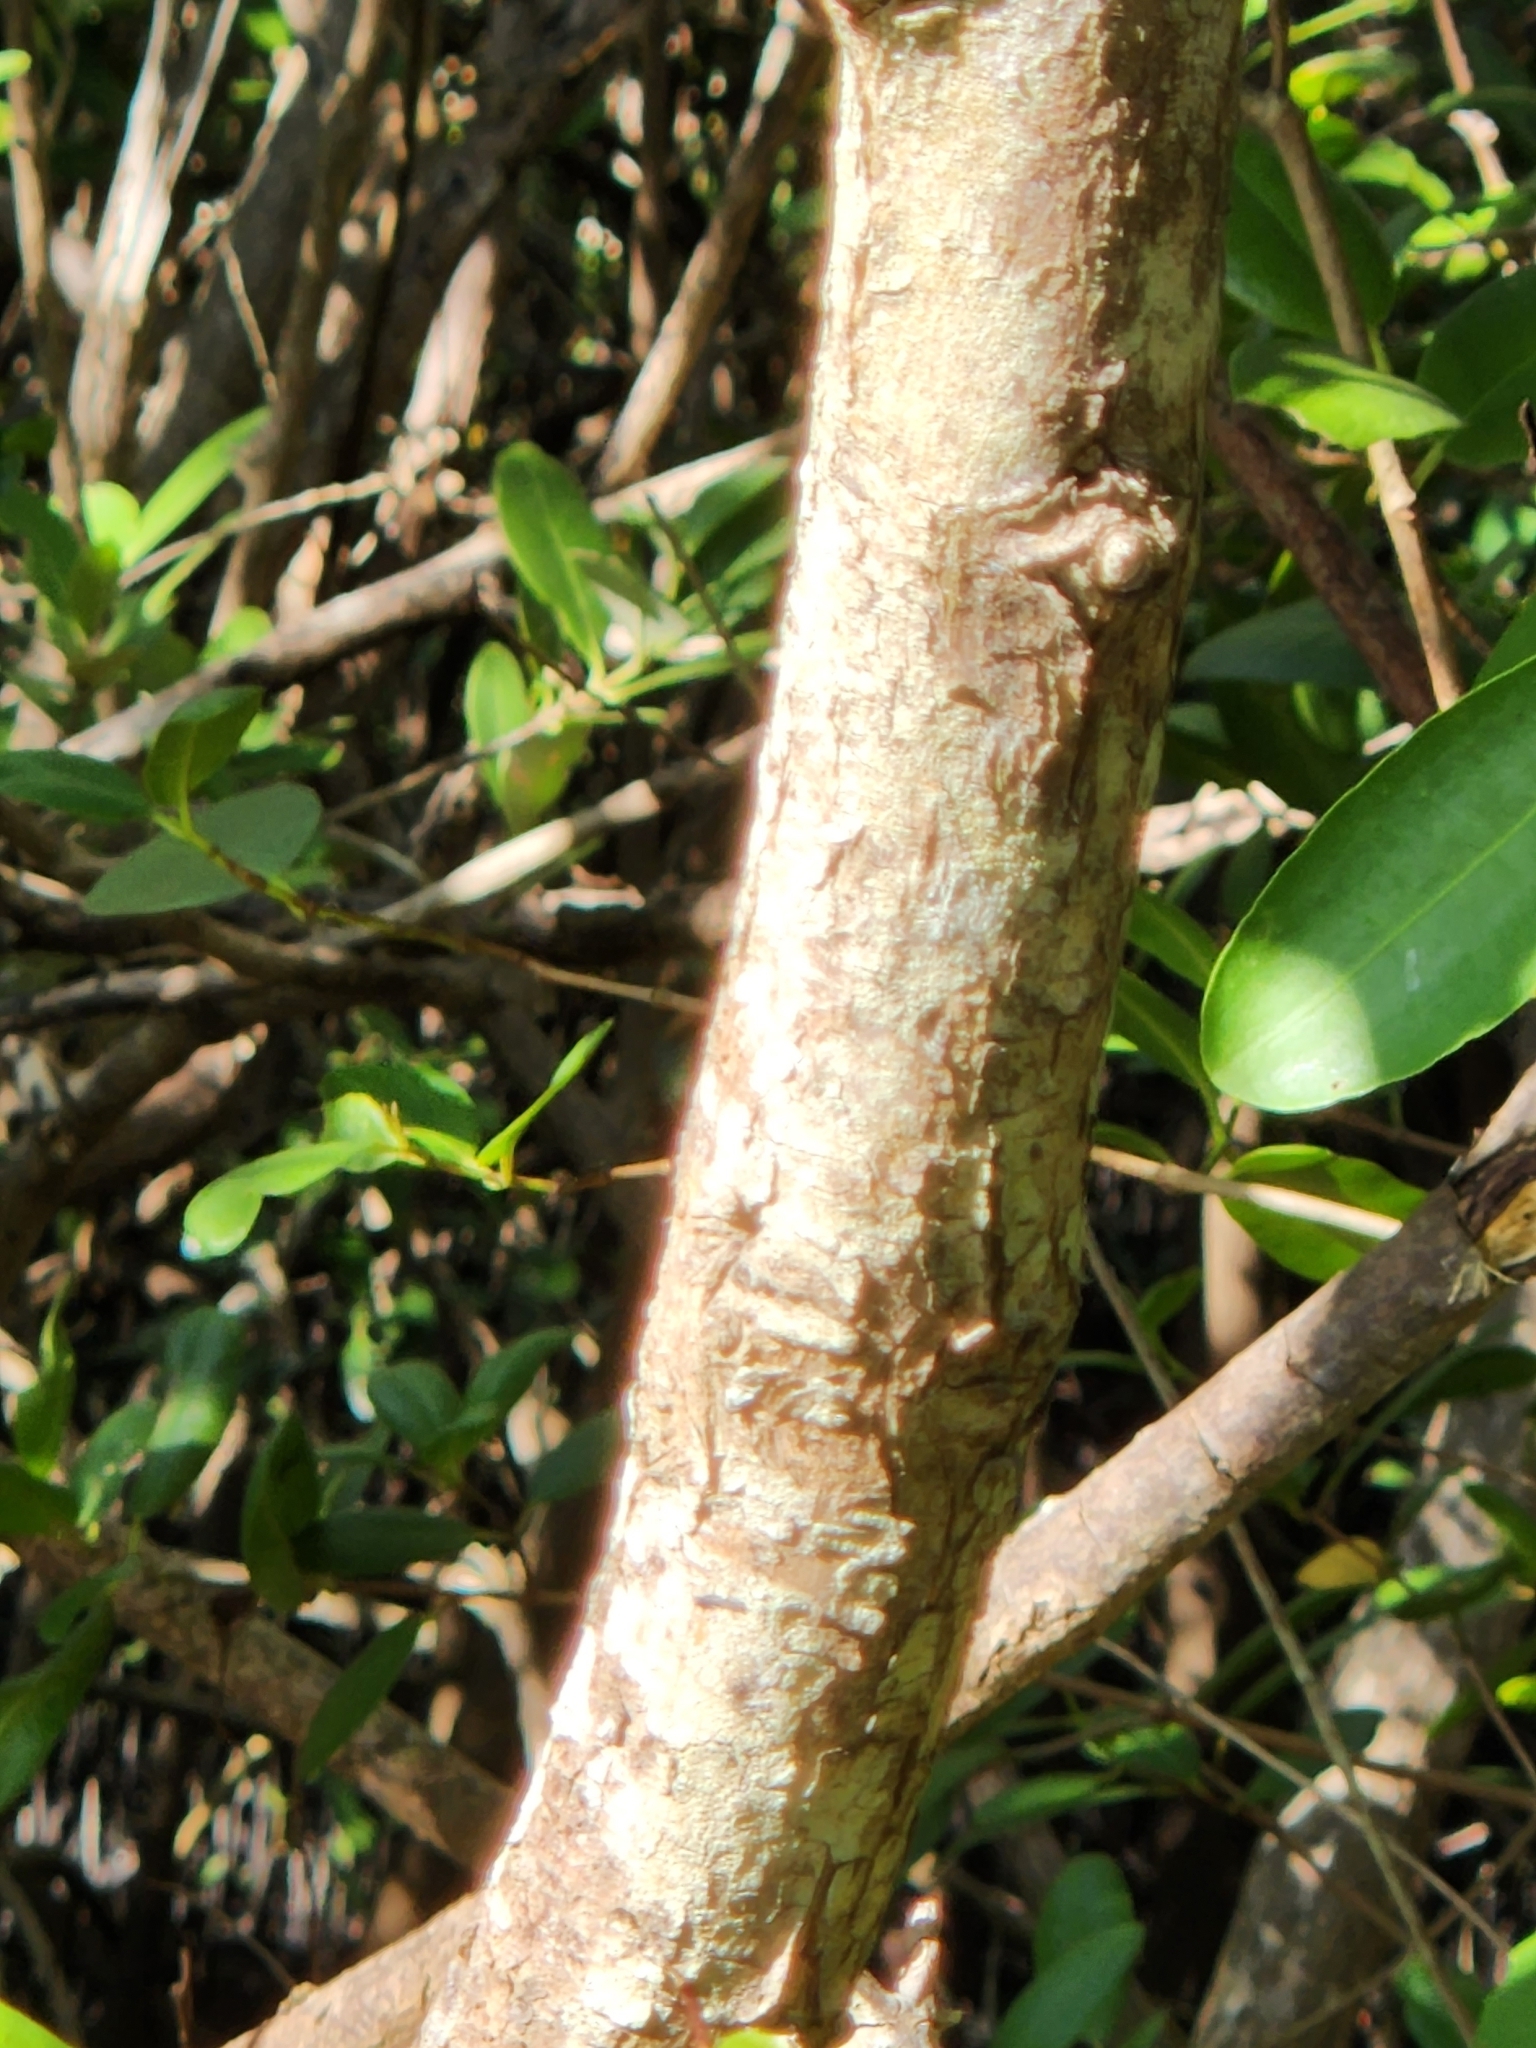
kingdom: Plantae
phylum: Tracheophyta
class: Magnoliopsida
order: Myrtales
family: Combretaceae
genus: Laguncularia
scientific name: Laguncularia racemosa
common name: White mangrove
